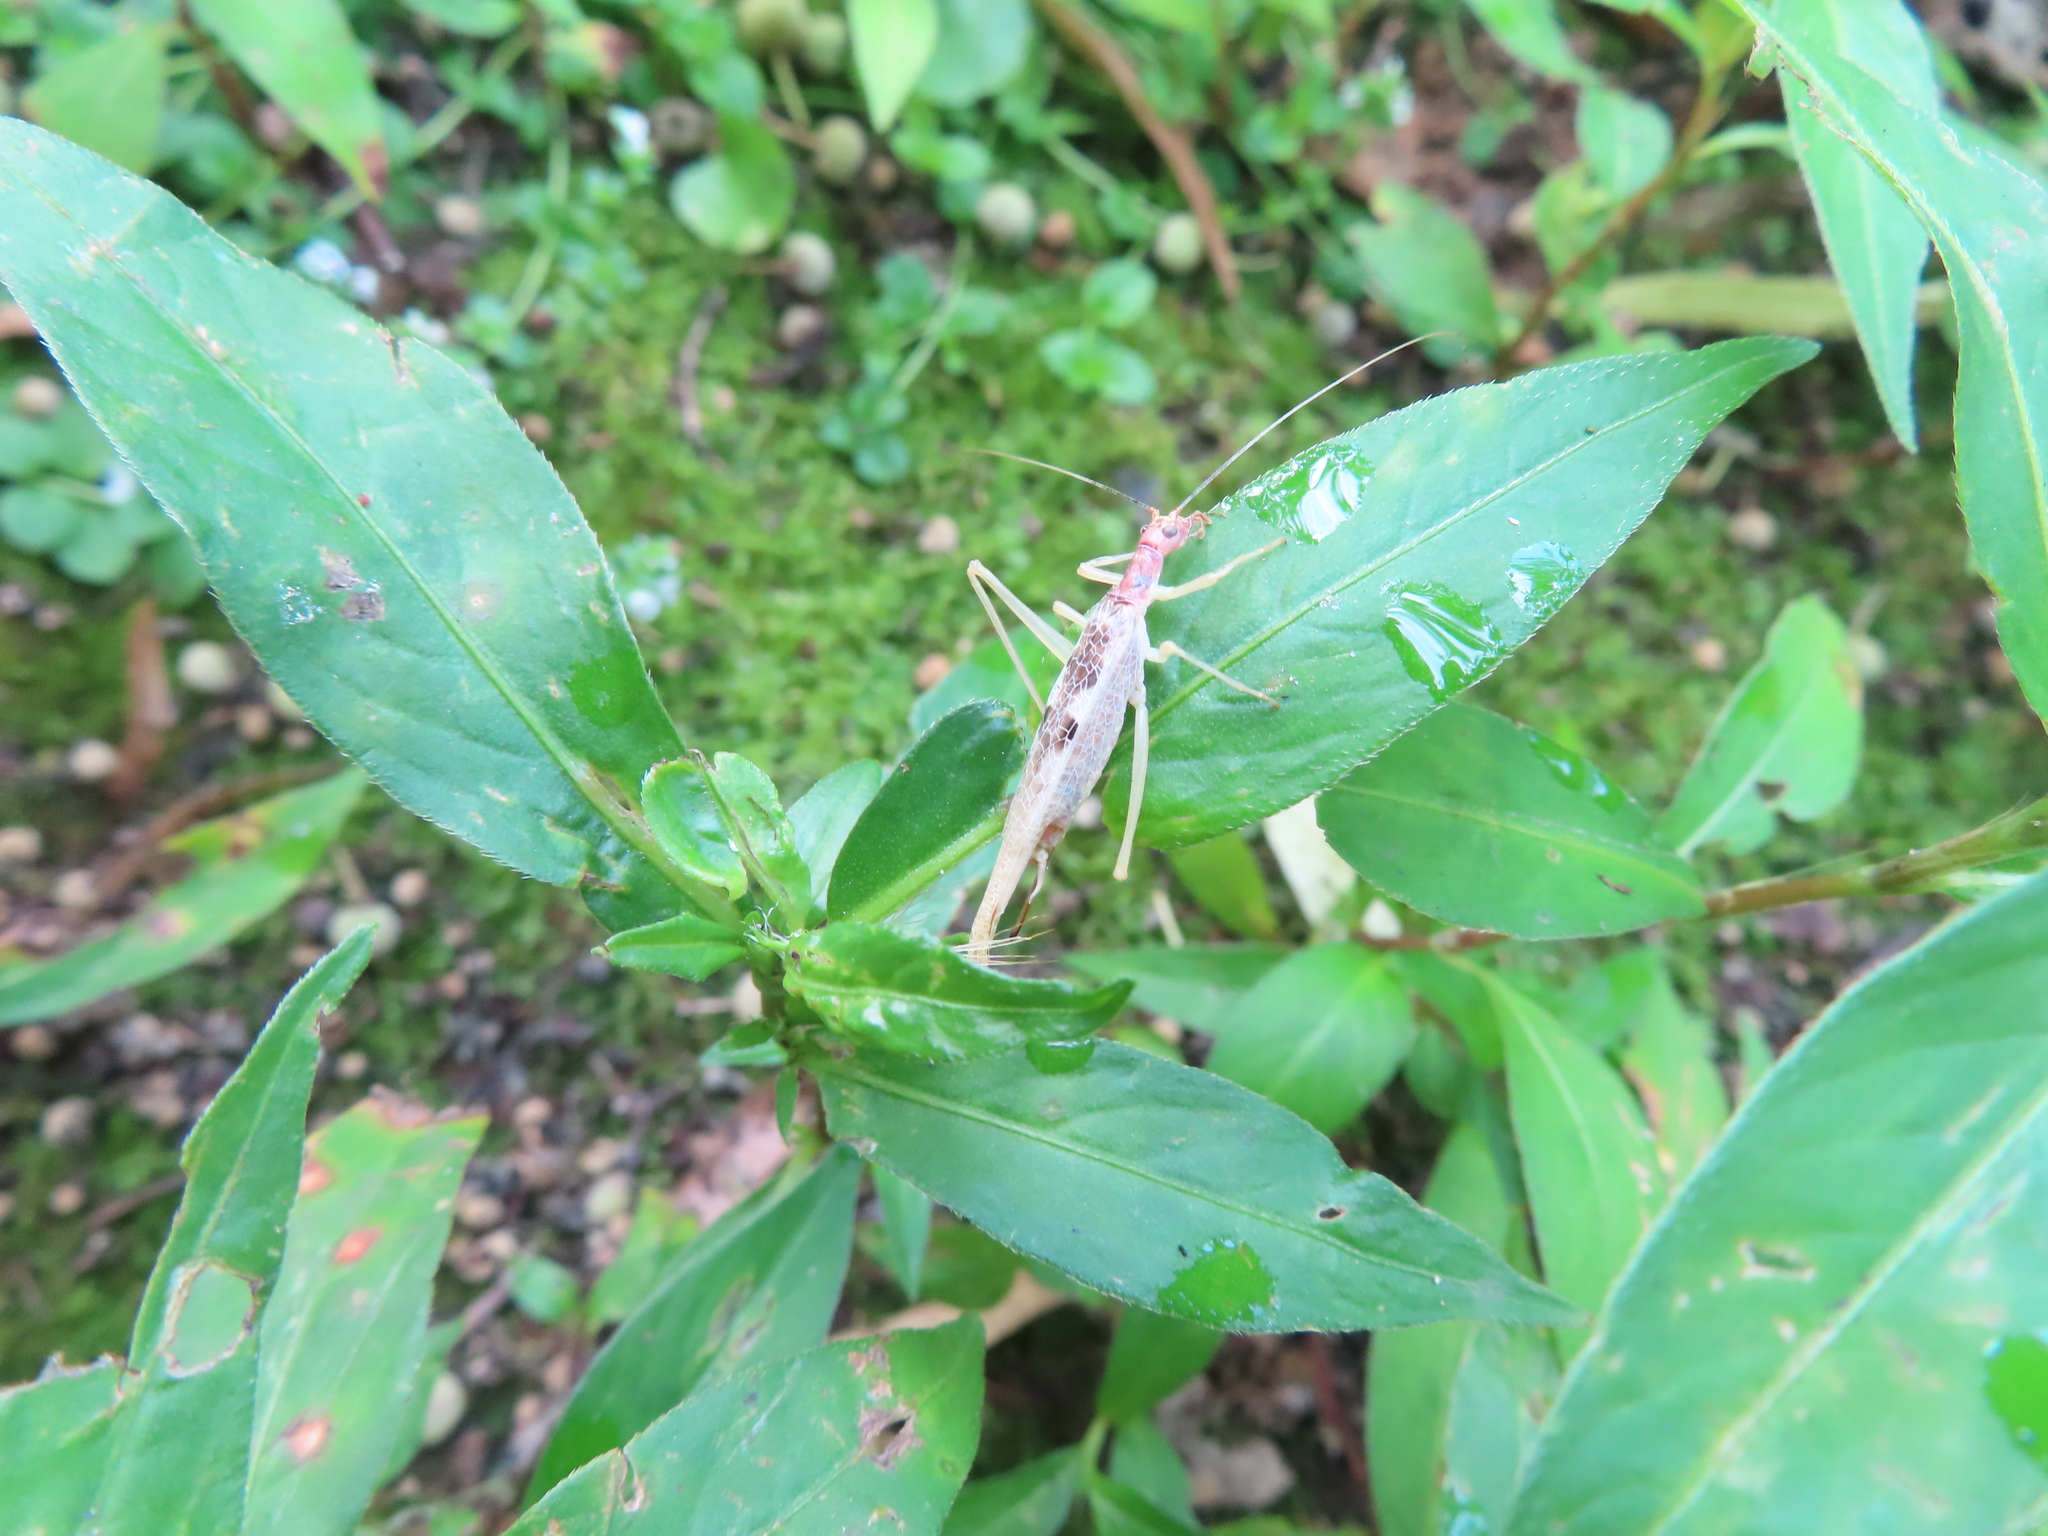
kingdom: Animalia
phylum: Arthropoda
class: Insecta
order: Orthoptera
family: Gryllidae
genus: Neoxabea
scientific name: Neoxabea bipunctata
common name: Two-spotted tree cricket
